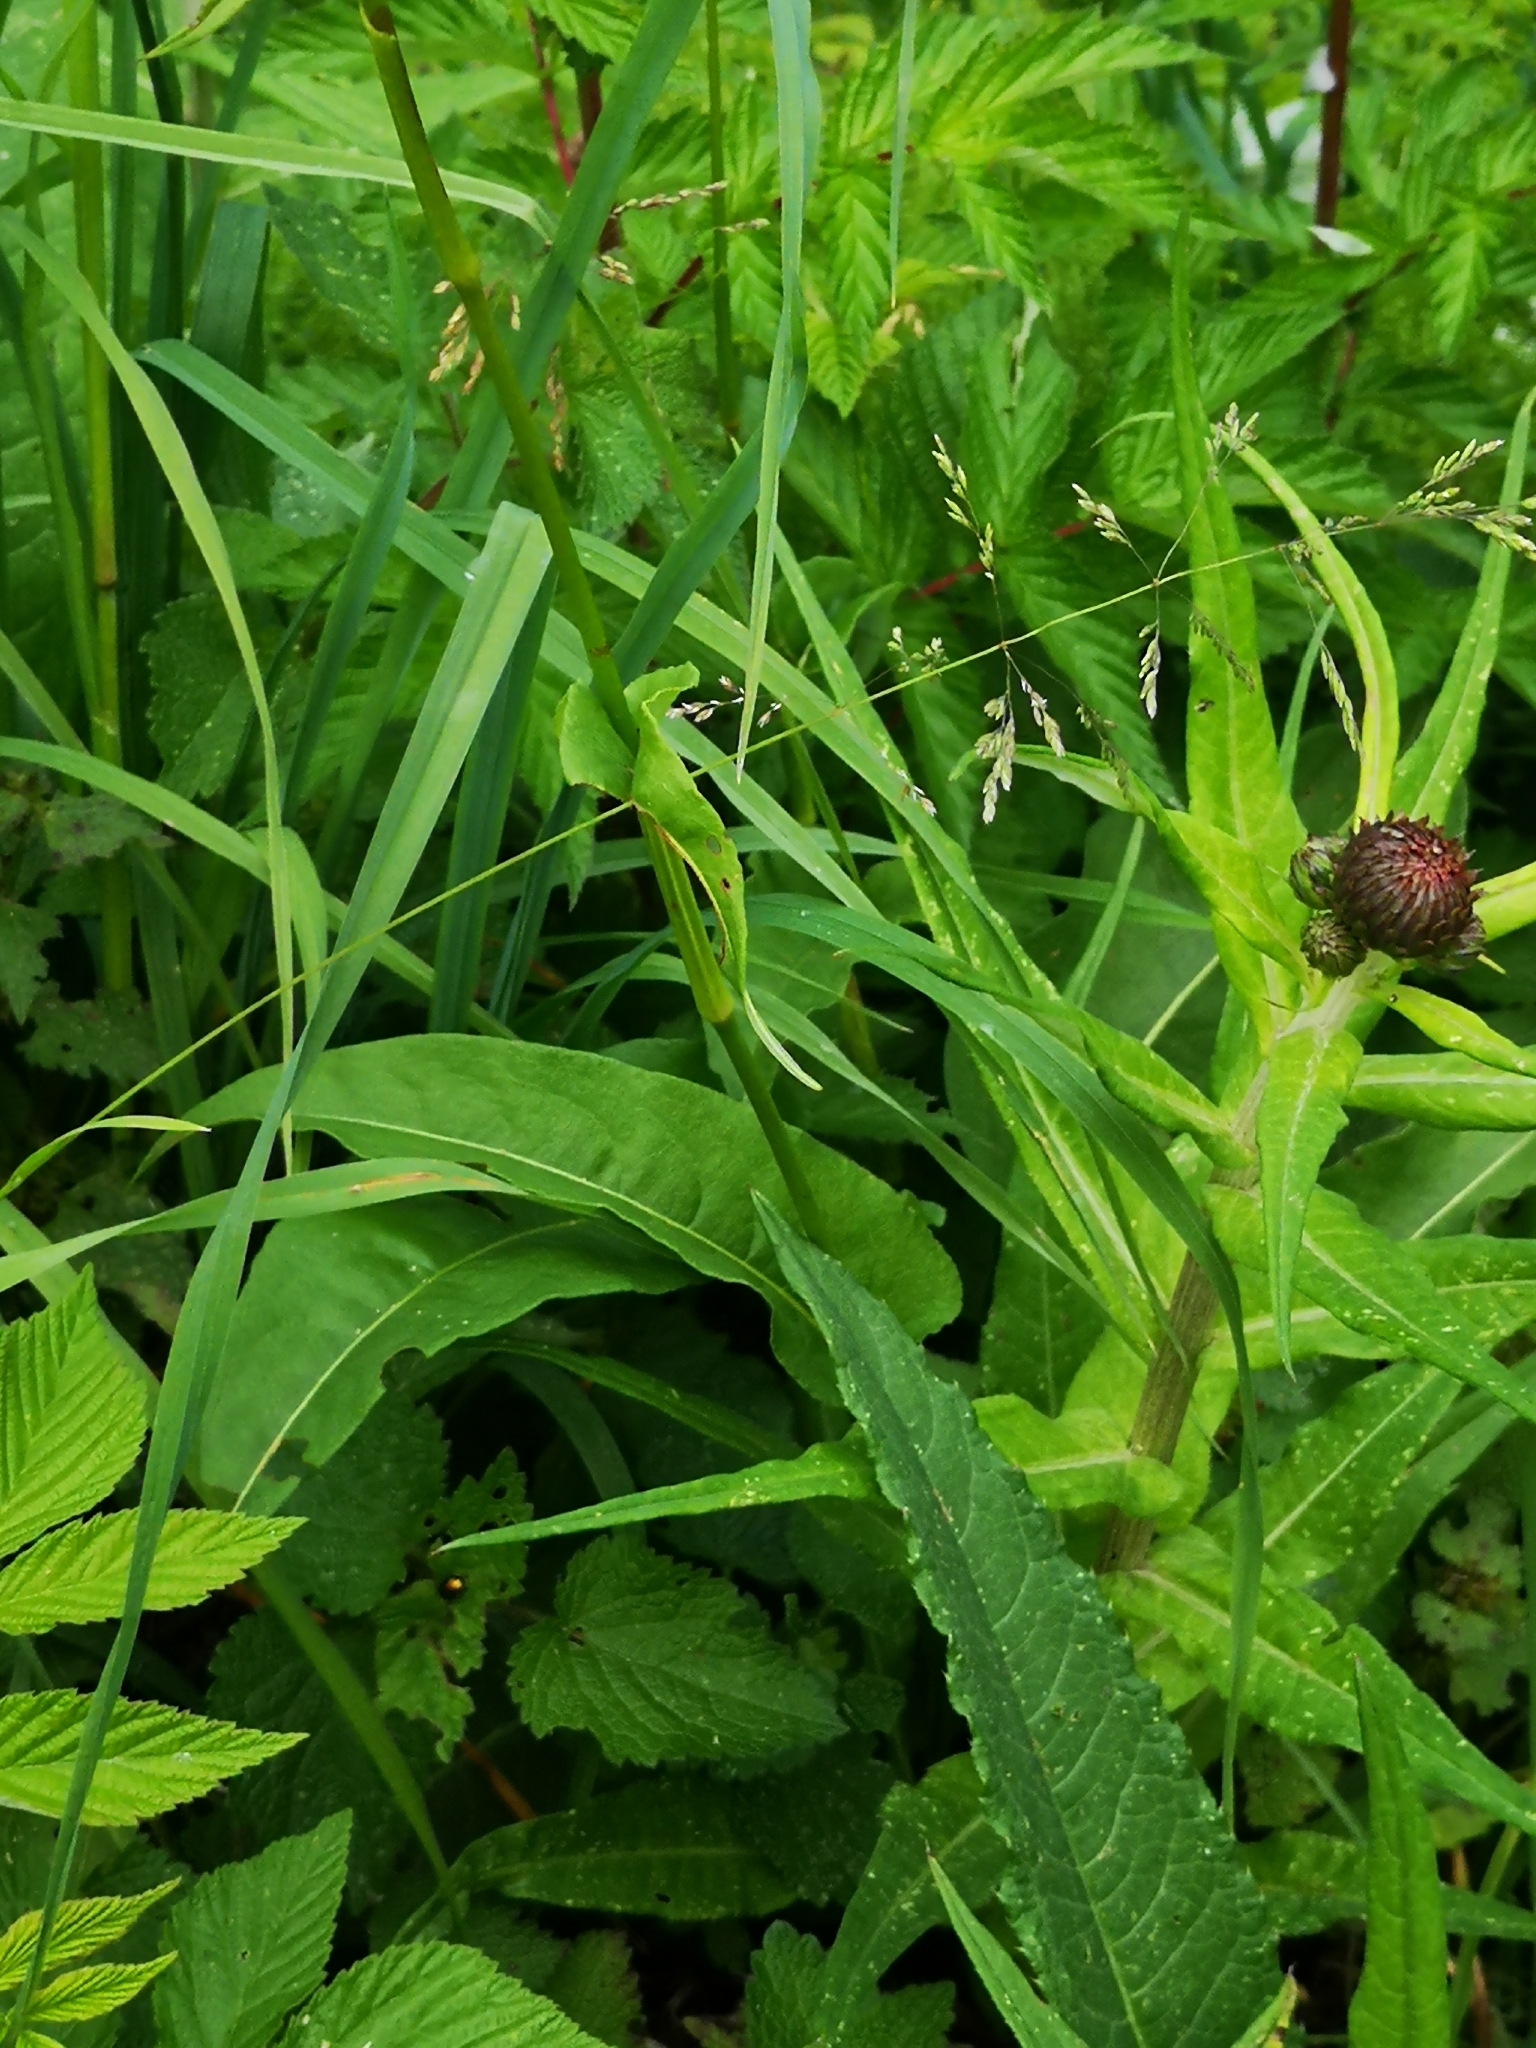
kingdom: Plantae
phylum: Tracheophyta
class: Magnoliopsida
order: Caryophyllales
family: Polygonaceae
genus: Bistorta
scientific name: Bistorta officinalis
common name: Common bistort
